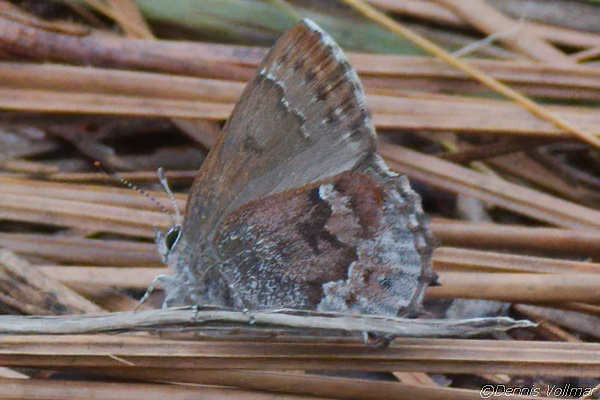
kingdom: Animalia
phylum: Arthropoda
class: Insecta
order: Lepidoptera
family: Lycaenidae
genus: Thecla
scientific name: Thecla irus
